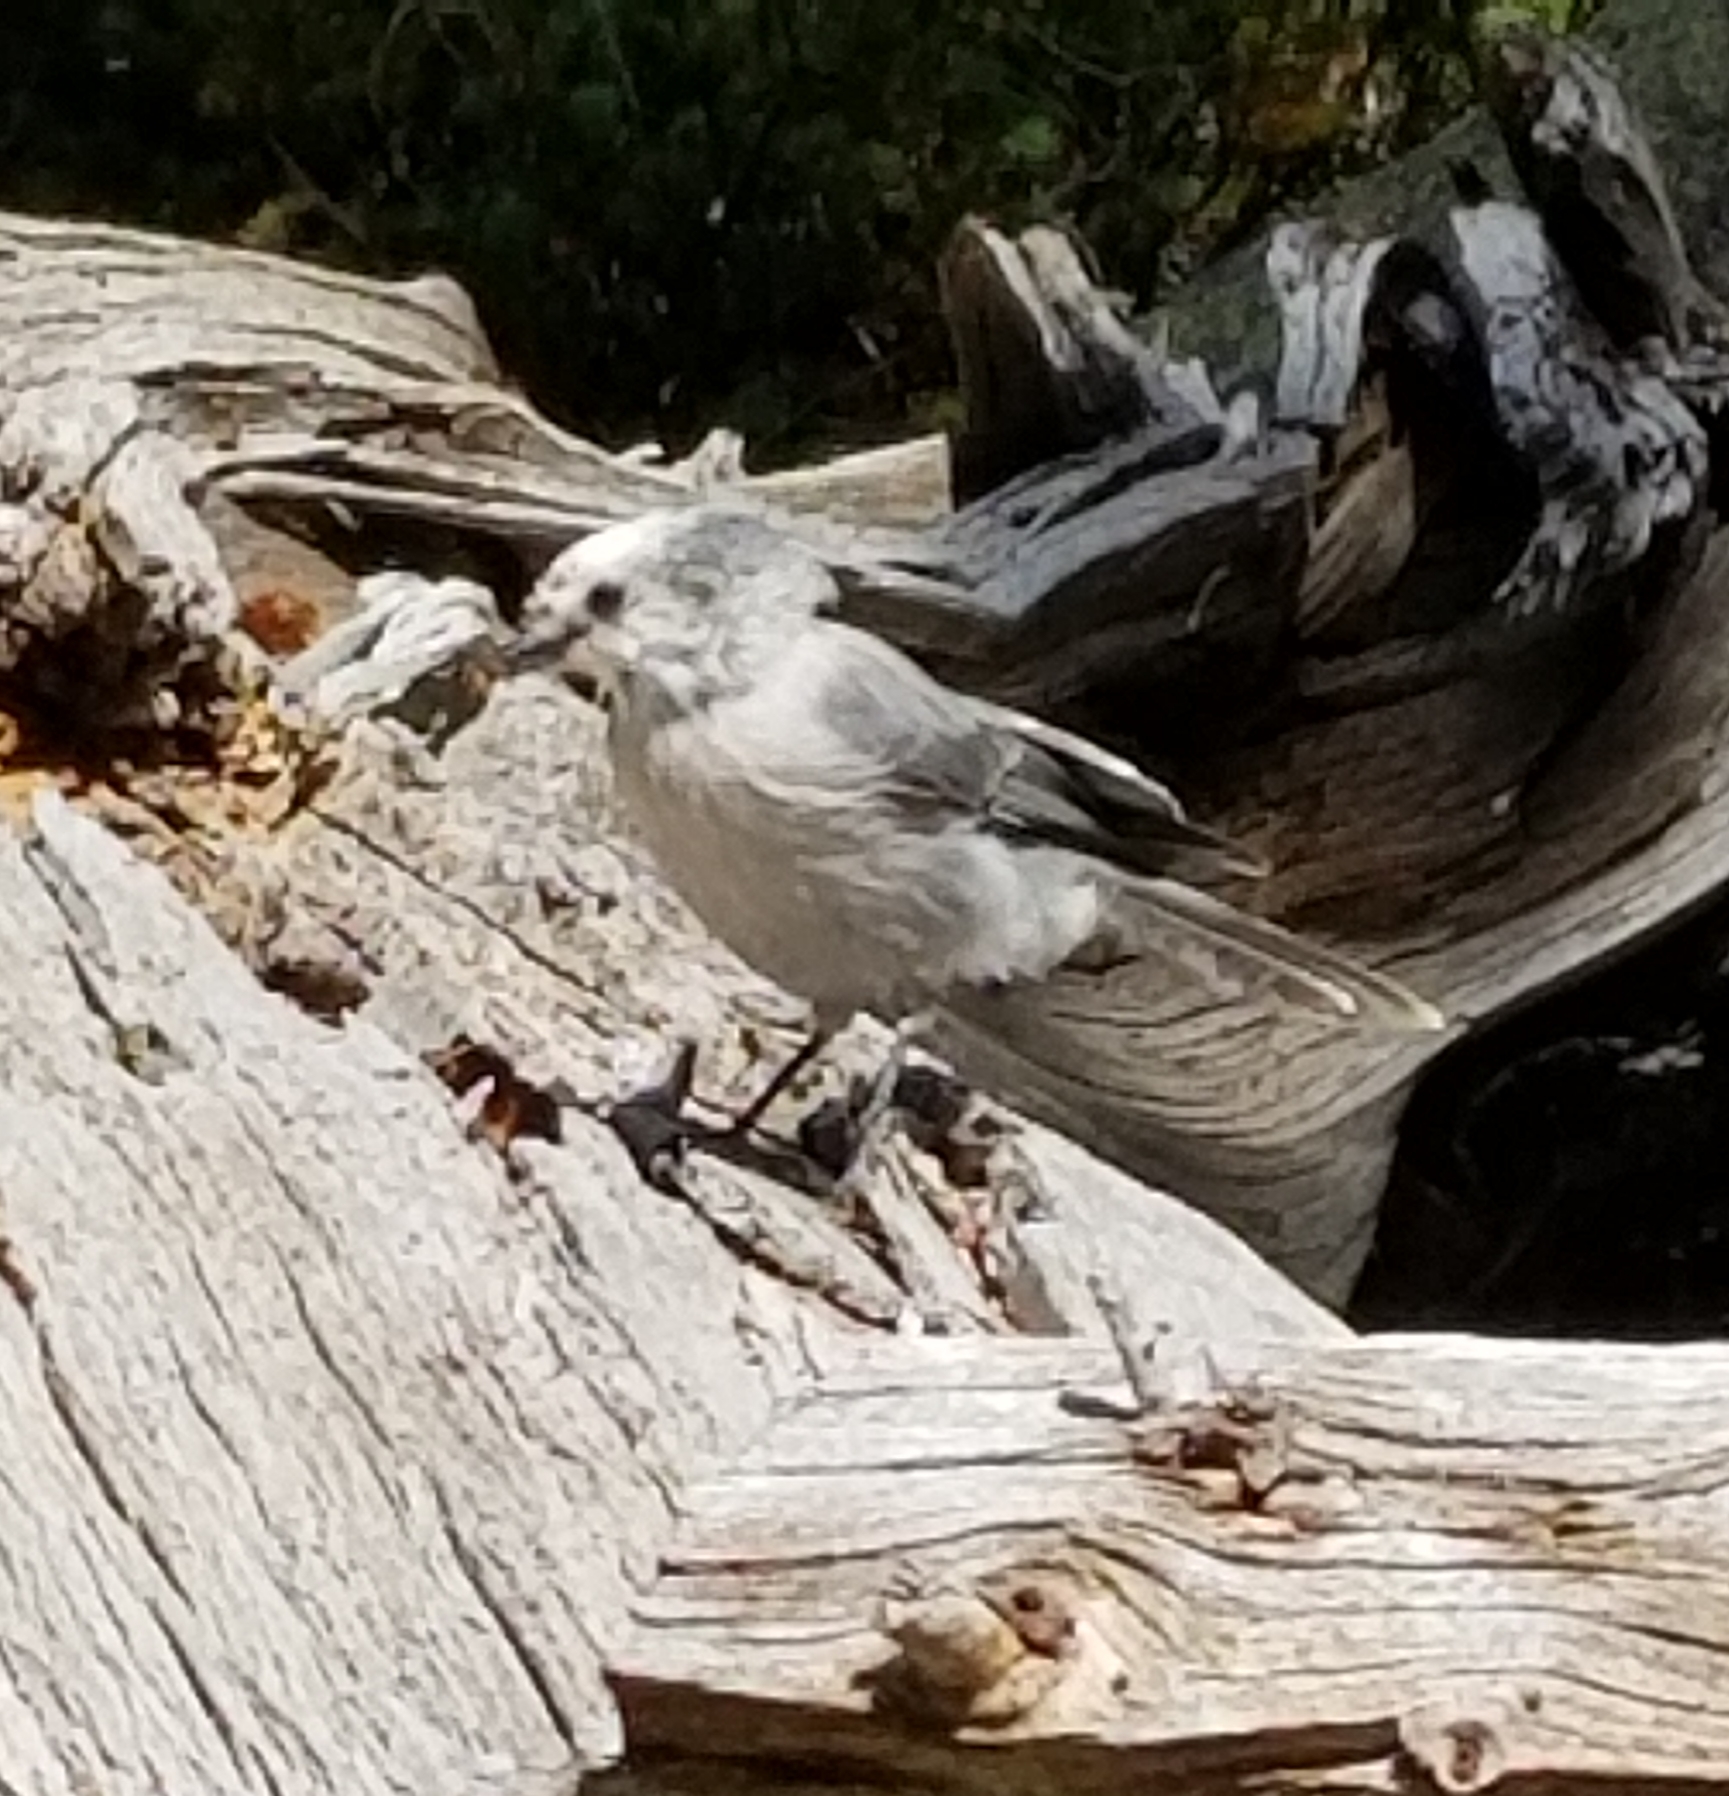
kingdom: Animalia
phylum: Chordata
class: Aves
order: Passeriformes
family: Corvidae
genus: Perisoreus
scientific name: Perisoreus canadensis
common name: Gray jay
